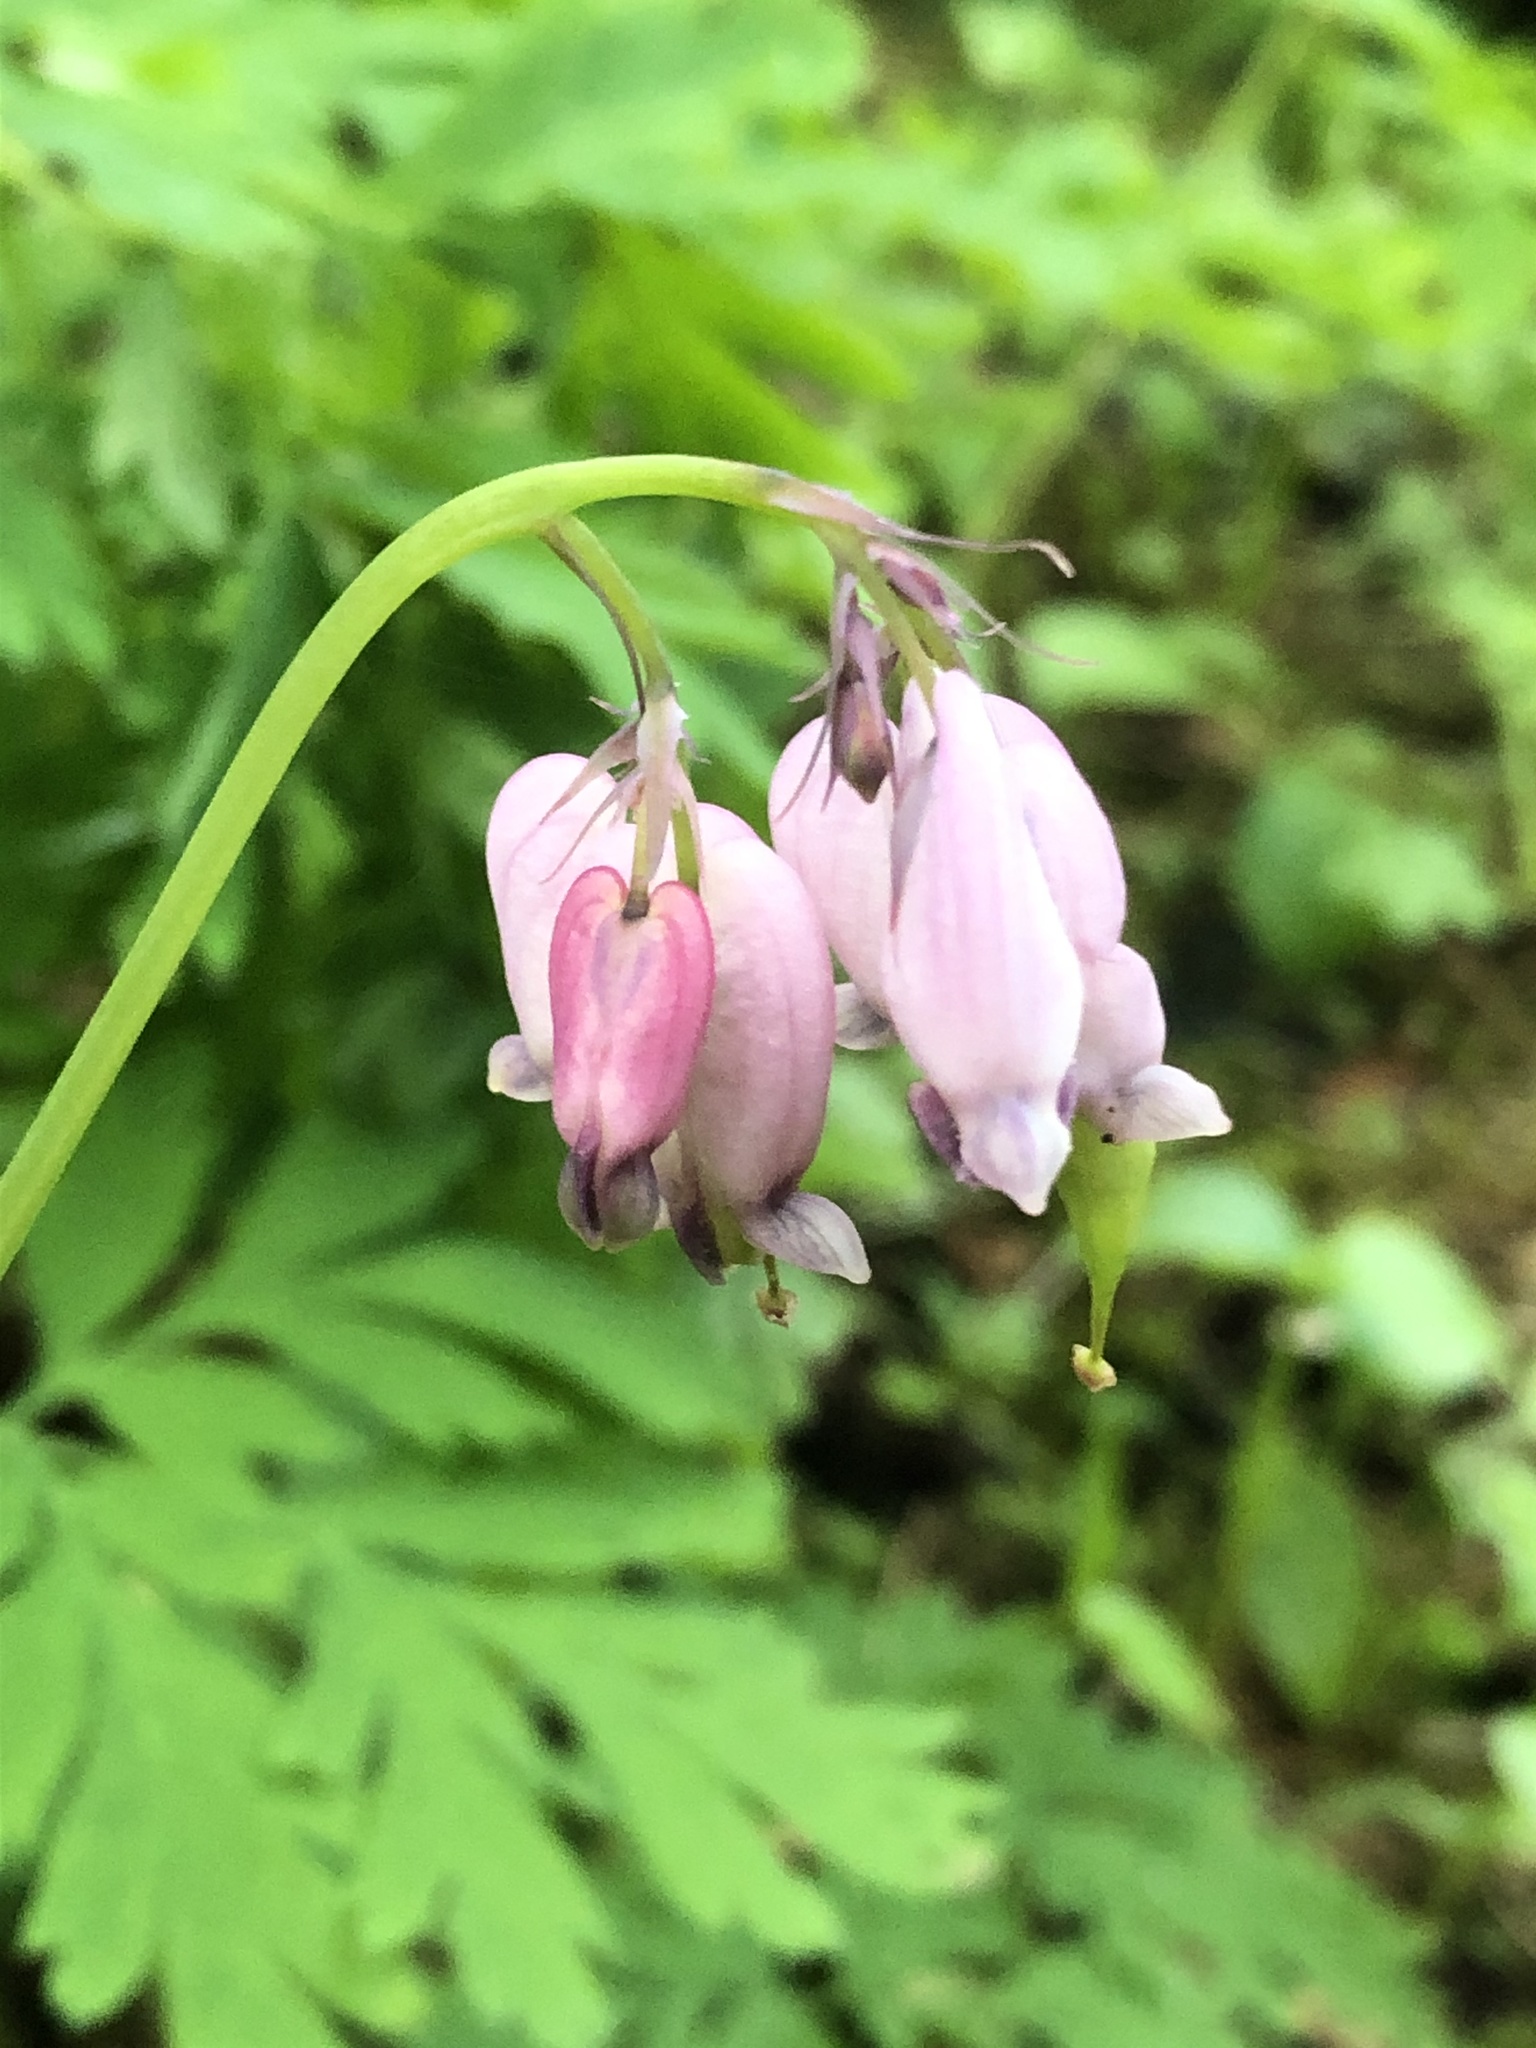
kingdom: Plantae
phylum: Tracheophyta
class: Magnoliopsida
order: Ranunculales
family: Papaveraceae
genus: Dicentra
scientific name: Dicentra formosa
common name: Bleeding-heart
